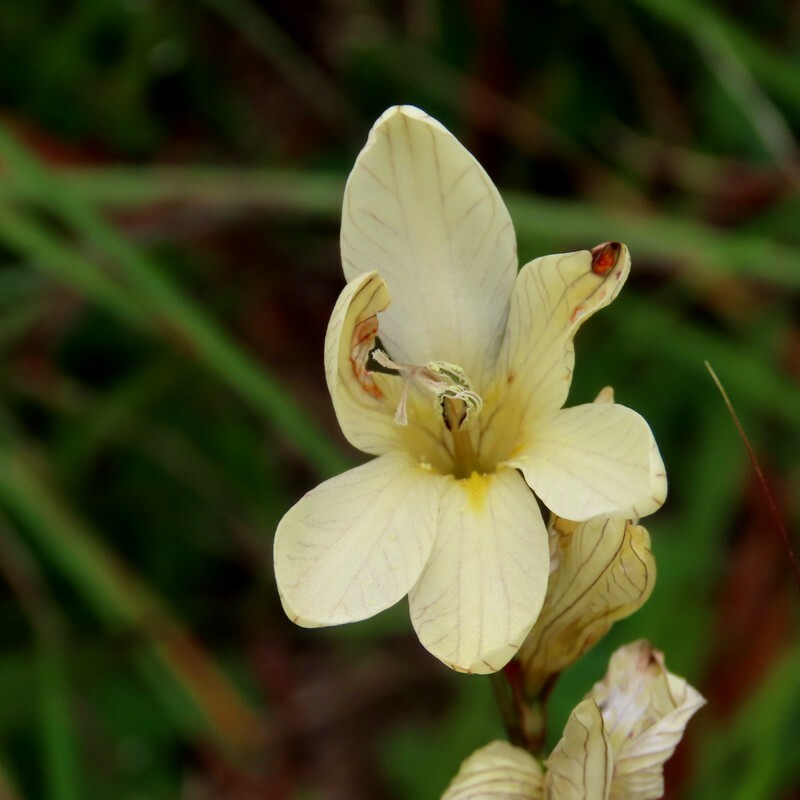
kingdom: Plantae
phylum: Tracheophyta
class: Liliopsida
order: Asparagales
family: Iridaceae
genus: Tritonia
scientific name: Tritonia gladiolaris
